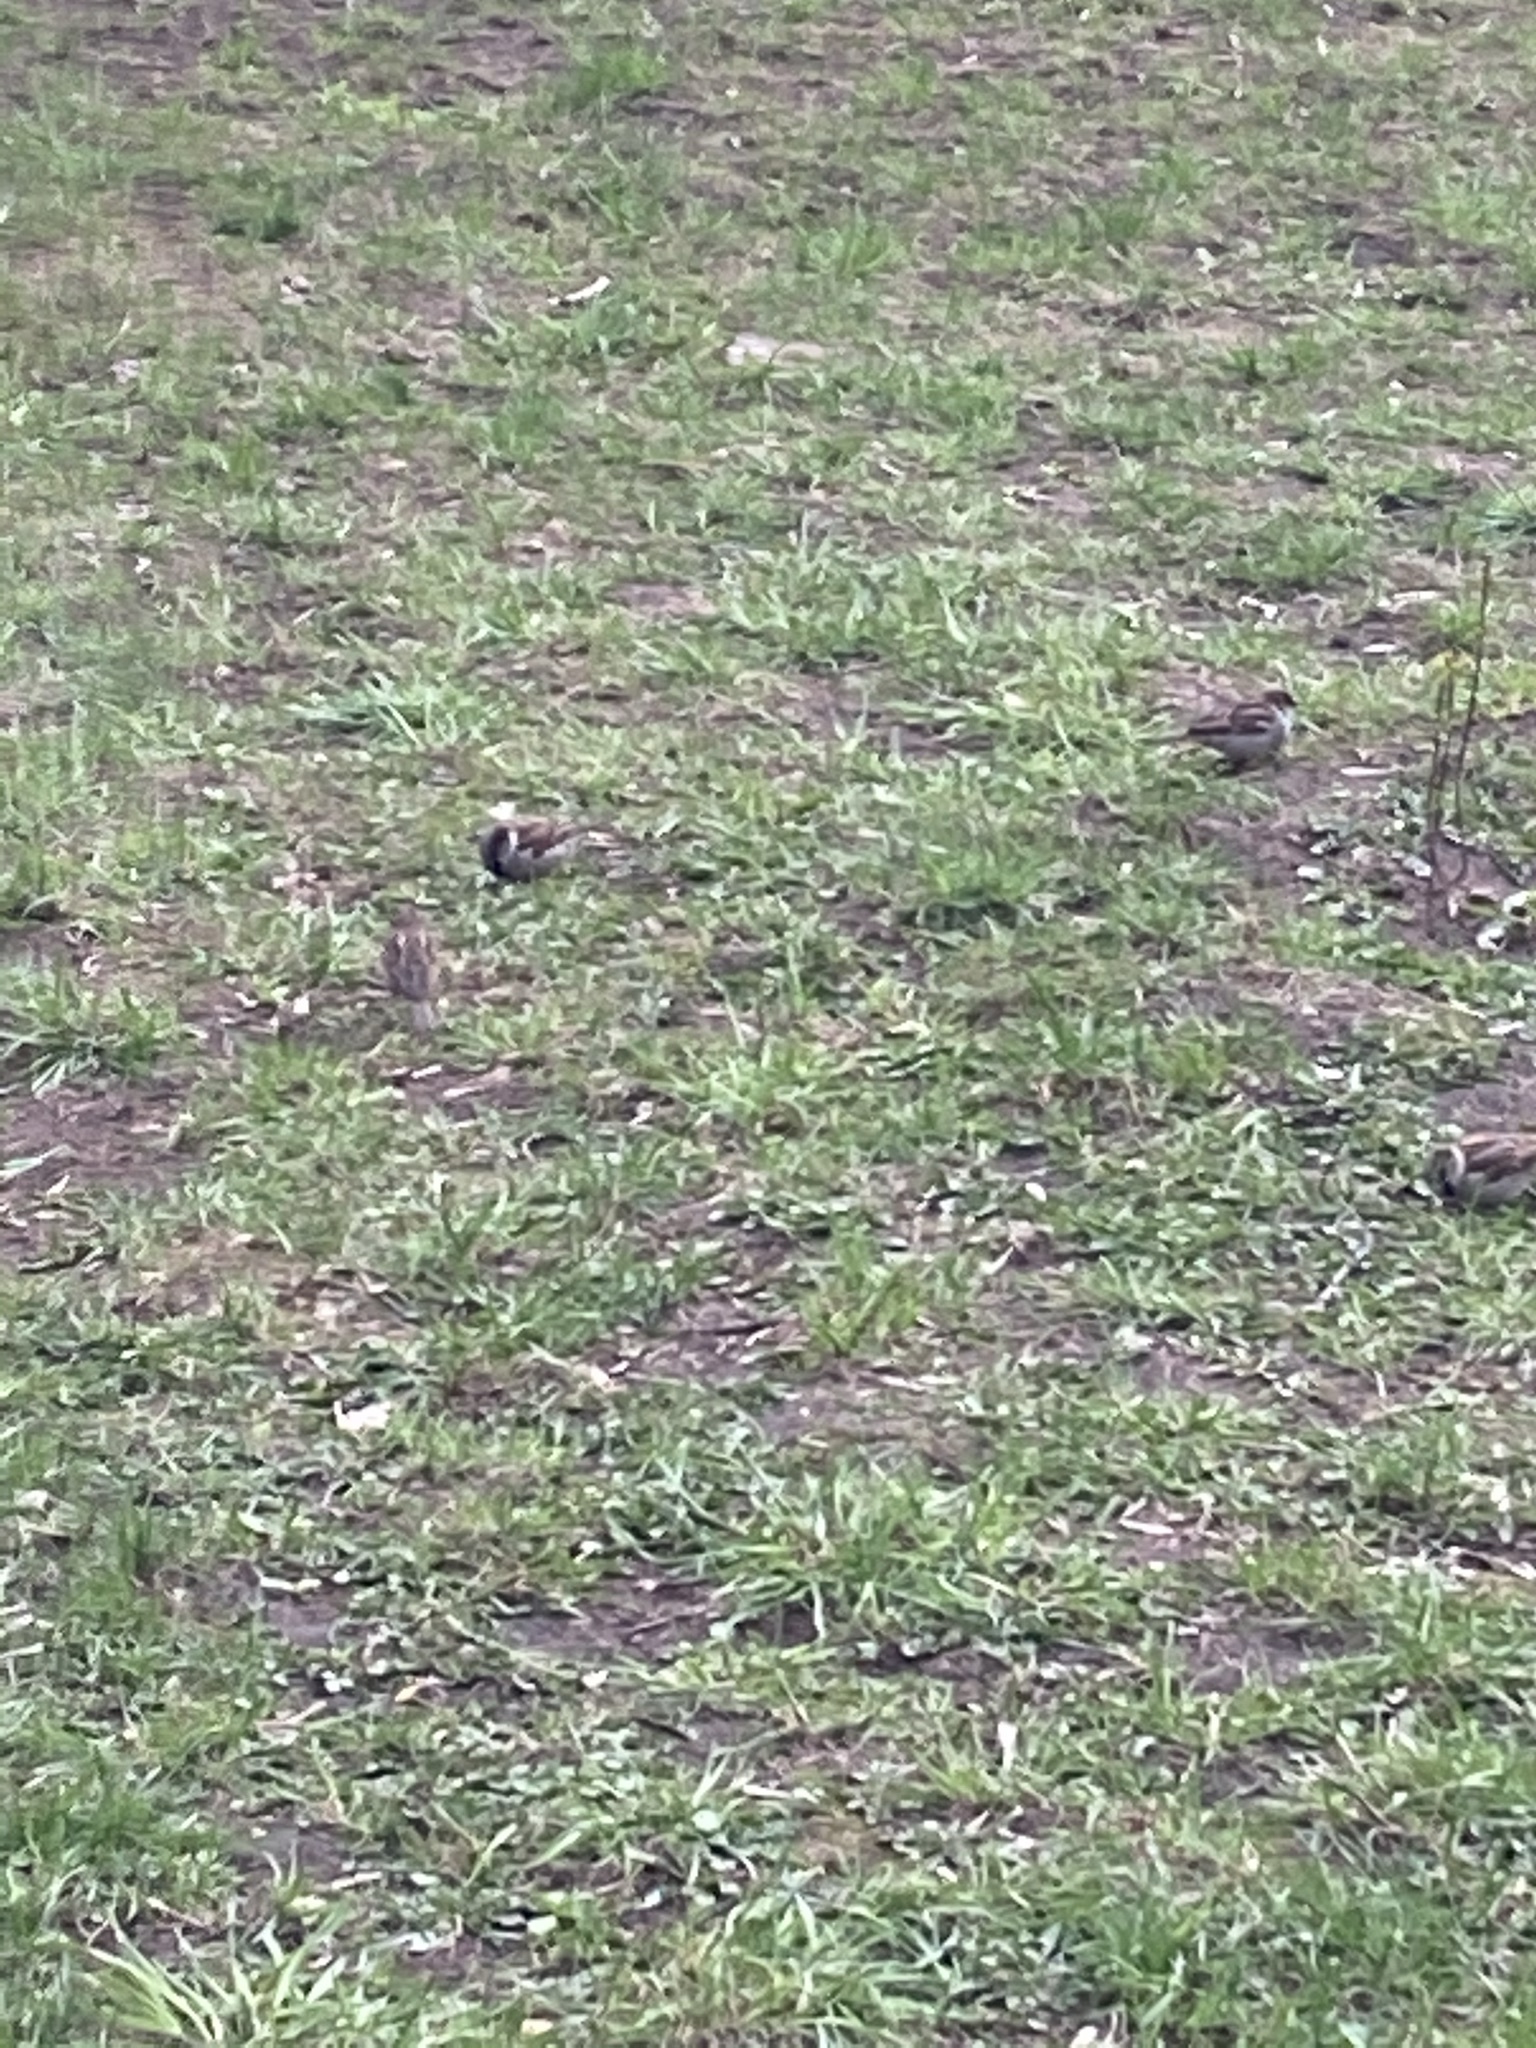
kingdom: Animalia
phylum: Chordata
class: Aves
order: Passeriformes
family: Passeridae
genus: Passer
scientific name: Passer domesticus
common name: House sparrow
